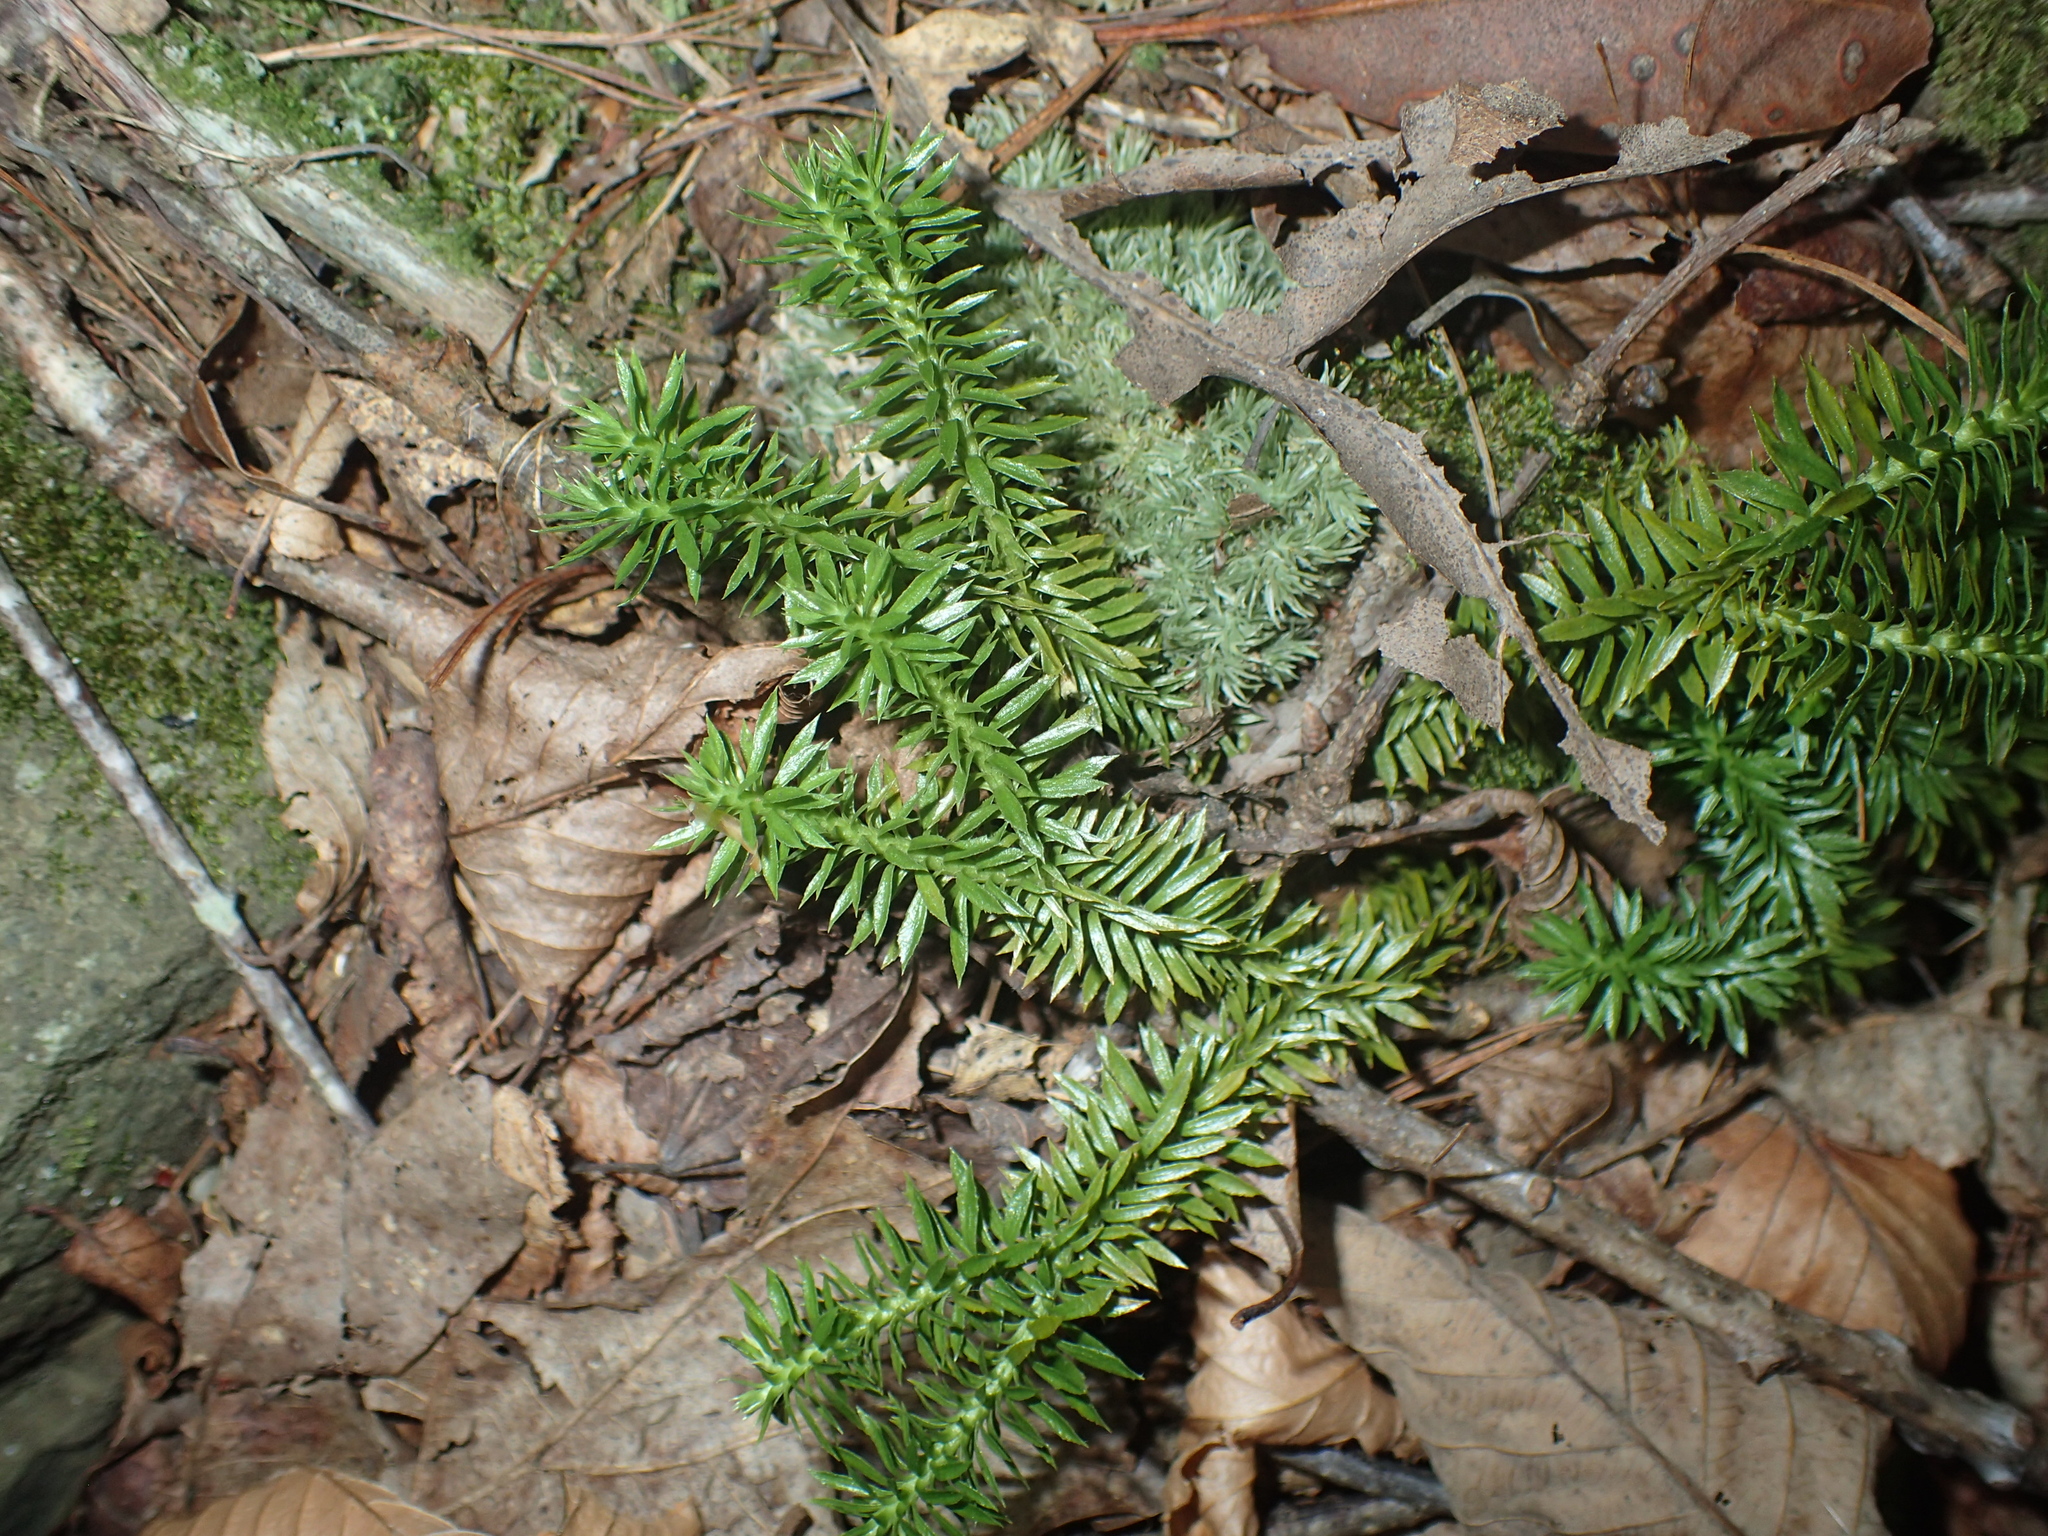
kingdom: Plantae
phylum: Tracheophyta
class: Lycopodiopsida
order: Lycopodiales
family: Lycopodiaceae
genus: Huperzia
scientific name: Huperzia lucidula
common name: Shining clubmoss
